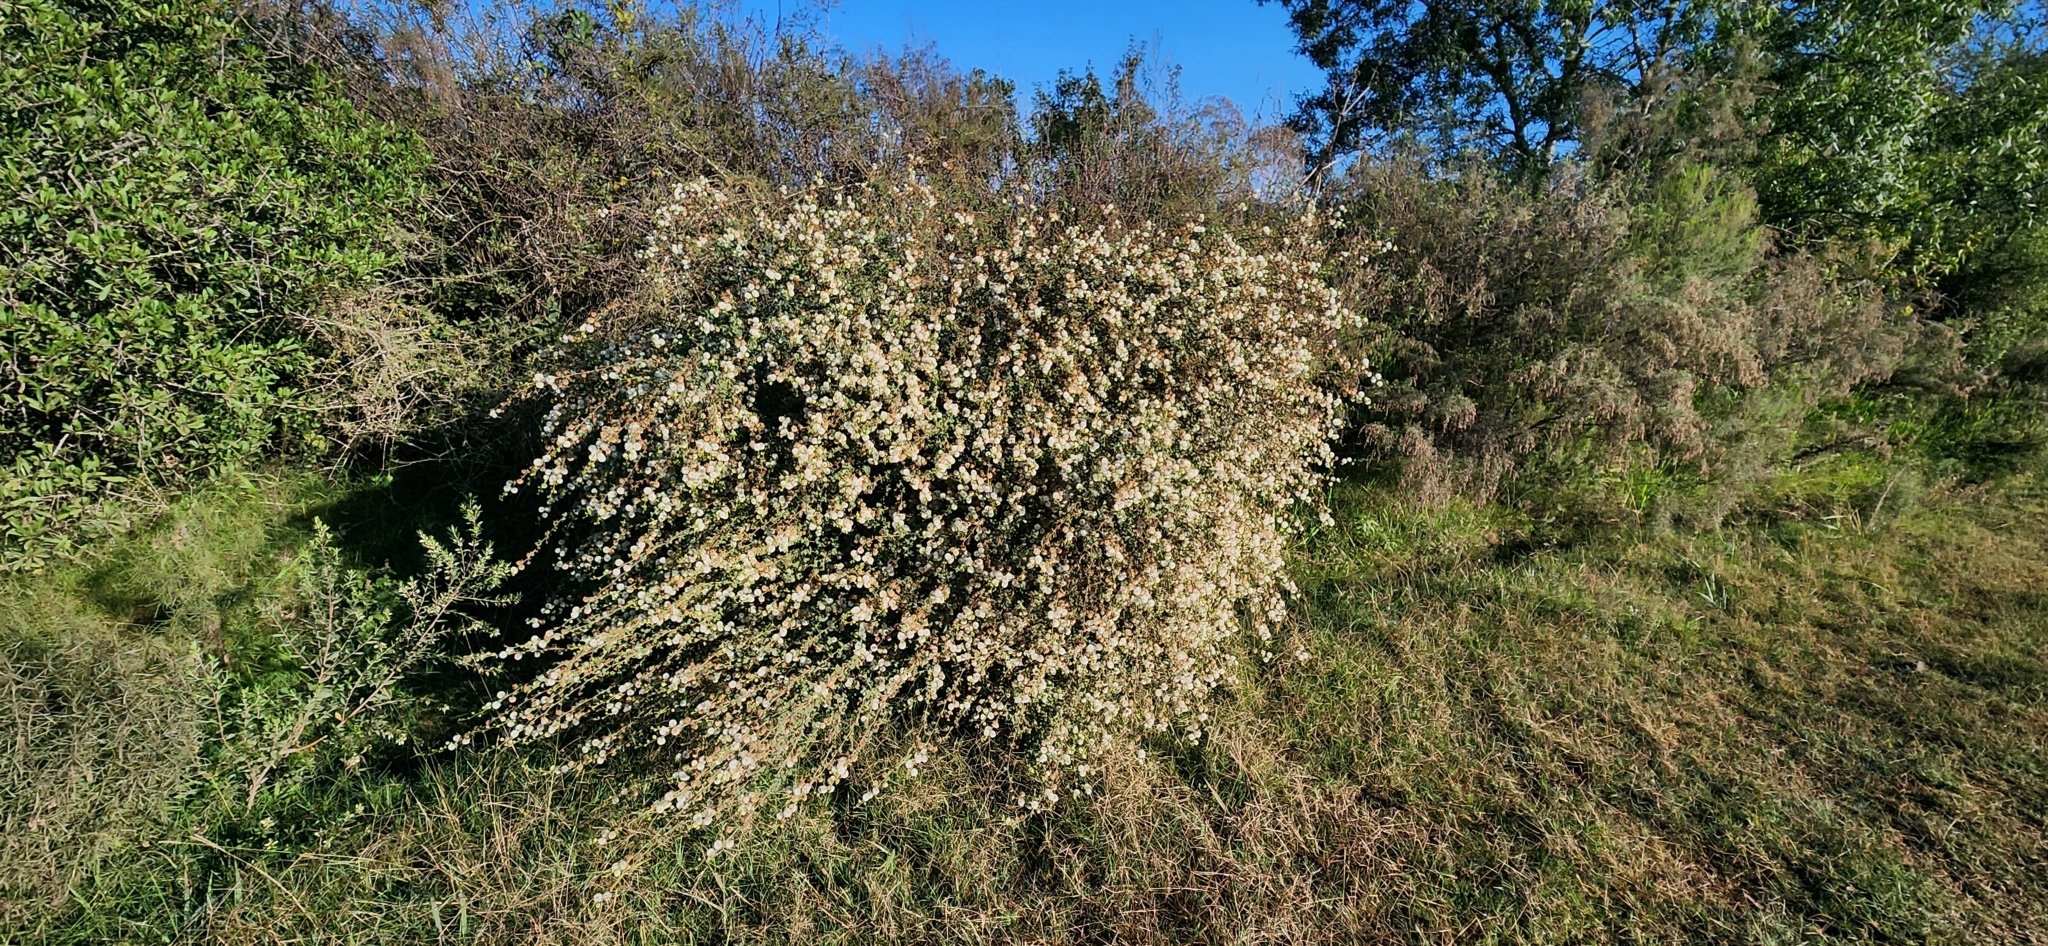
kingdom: Plantae
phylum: Tracheophyta
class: Magnoliopsida
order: Fabales
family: Fabaceae
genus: Mimosa
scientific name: Mimosa sprengelii
